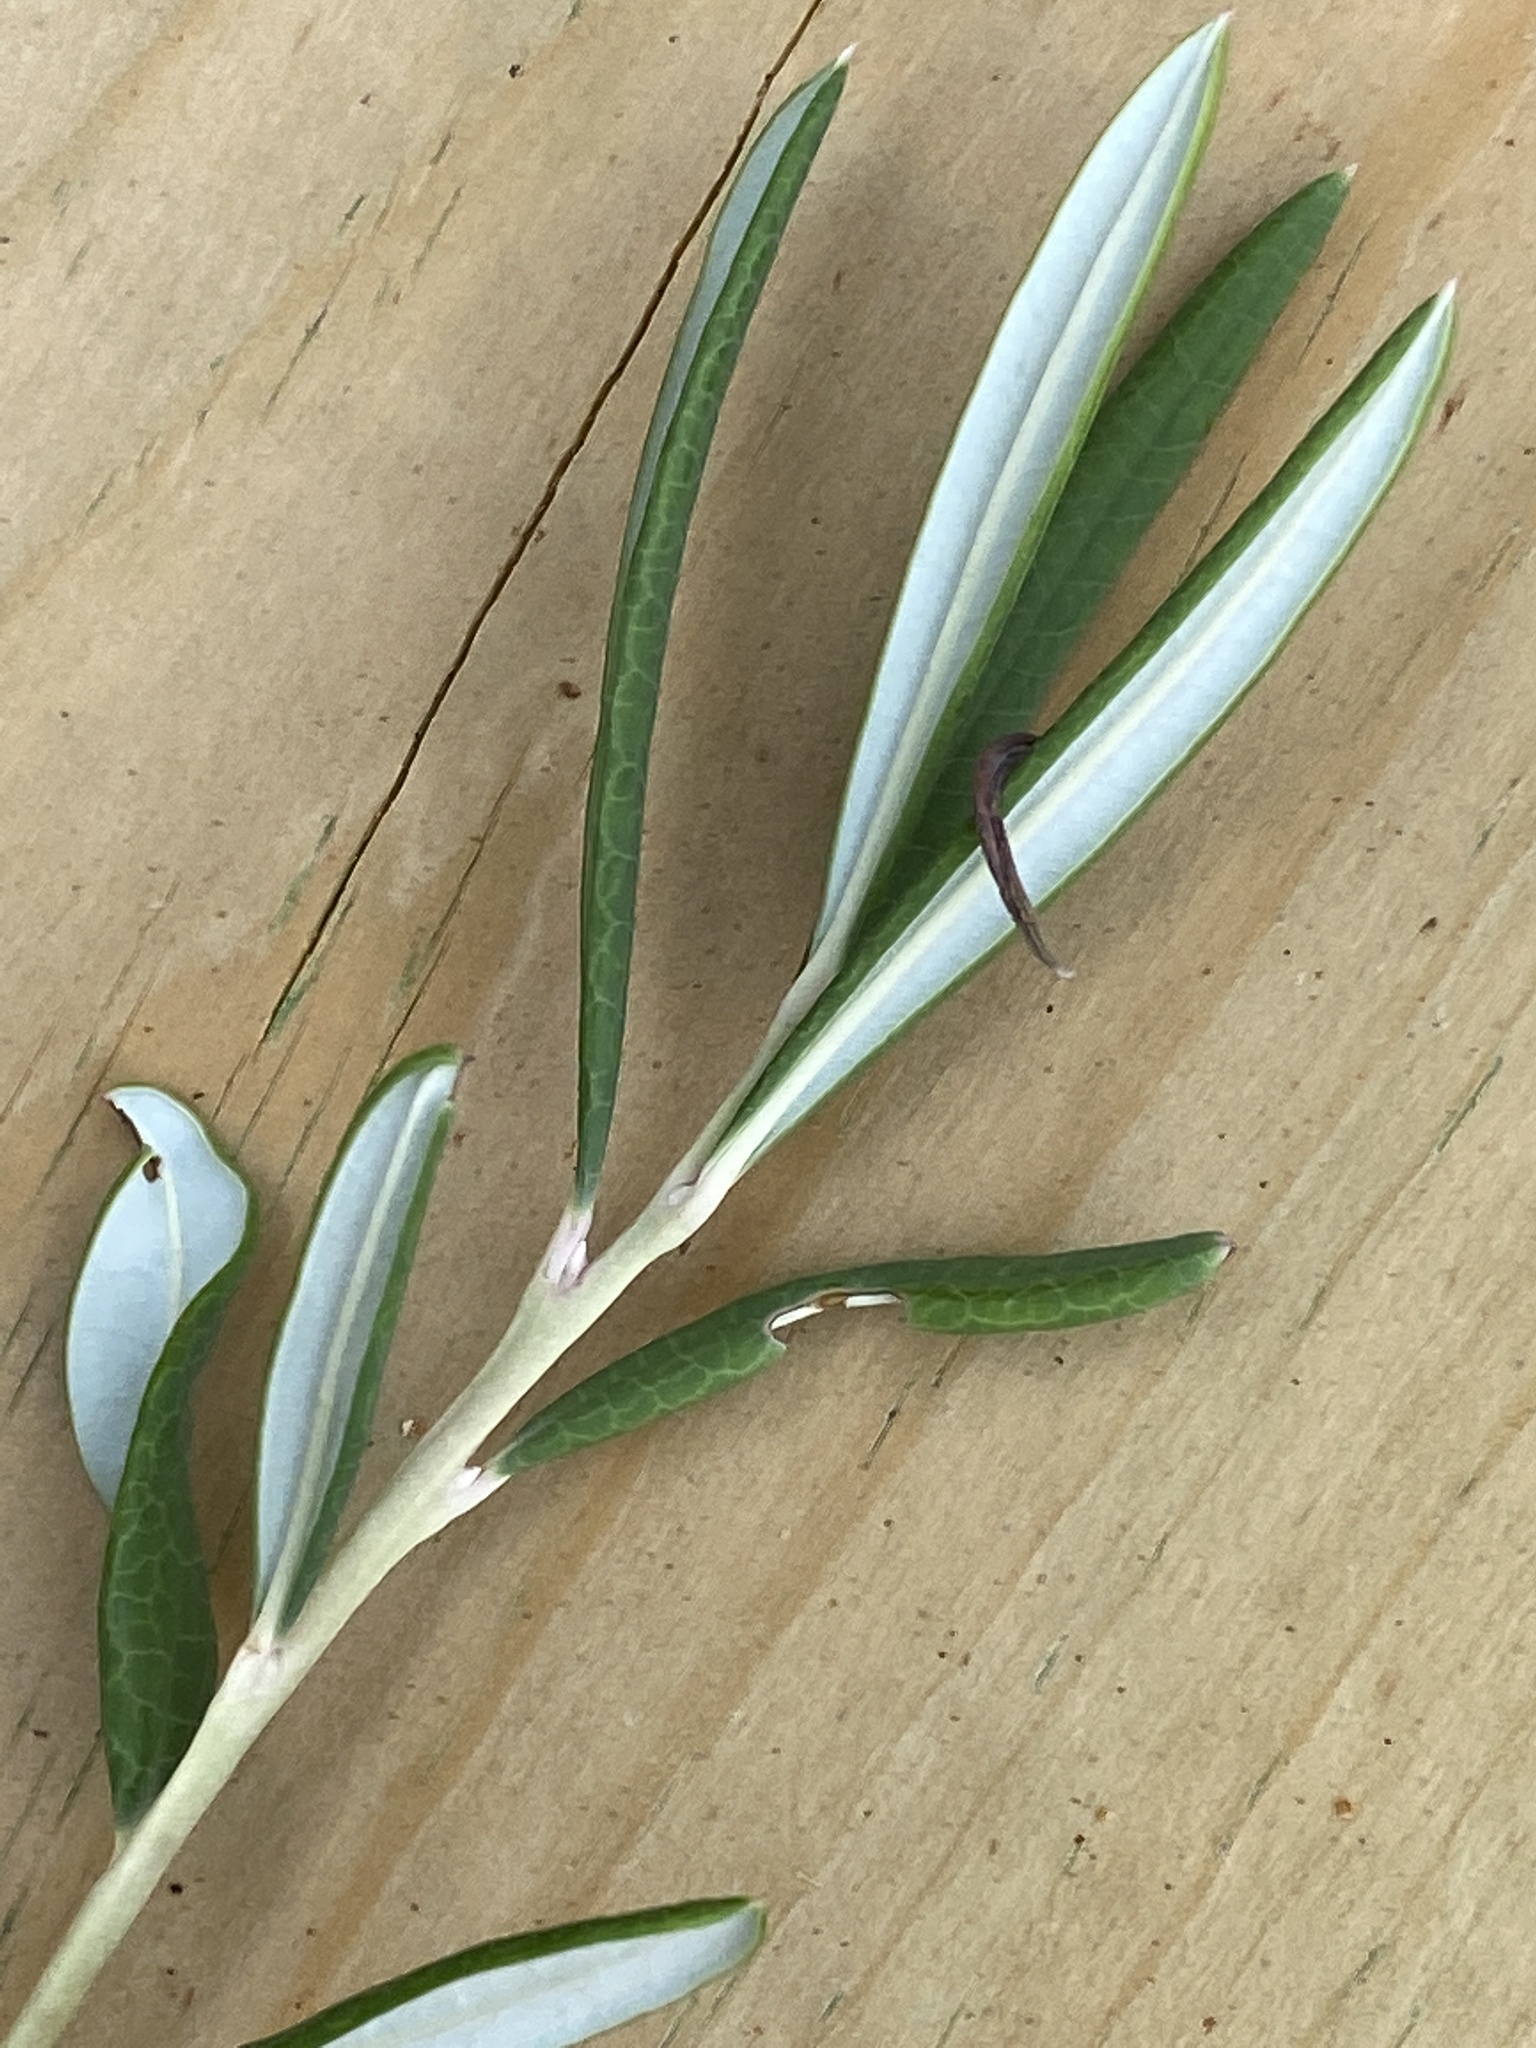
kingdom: Plantae
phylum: Tracheophyta
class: Magnoliopsida
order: Ericales
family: Ericaceae
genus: Andromeda
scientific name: Andromeda polifolia
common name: Bog-rosemary
